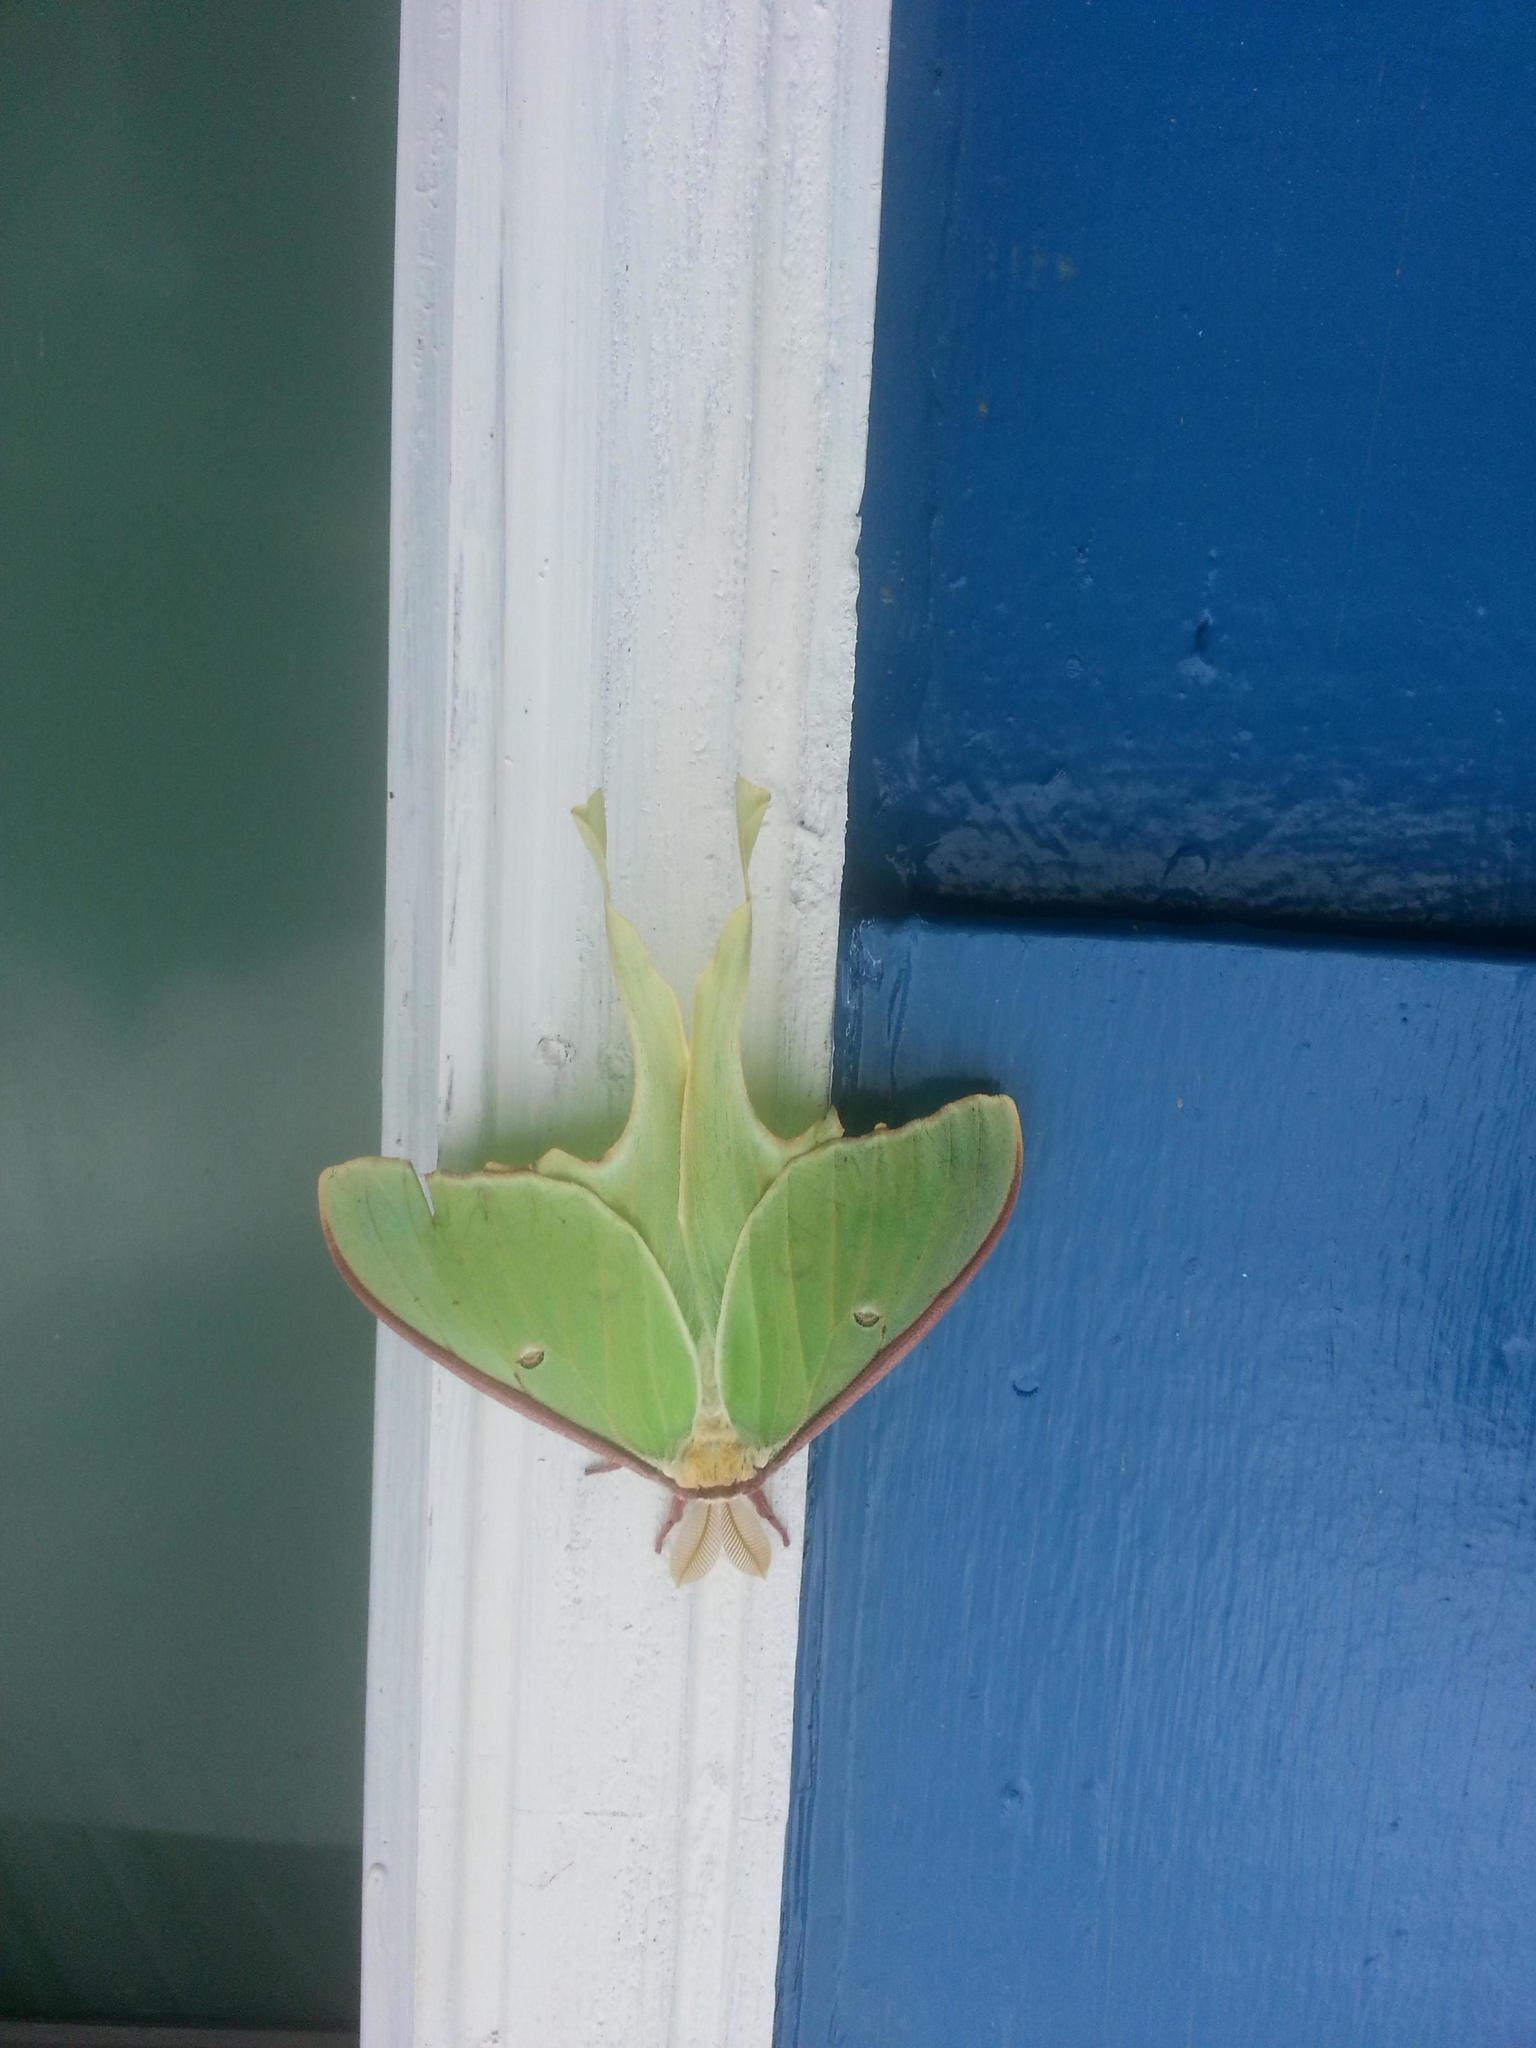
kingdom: Animalia
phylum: Arthropoda
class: Insecta
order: Lepidoptera
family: Saturniidae
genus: Actias
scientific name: Actias luna
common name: Luna moth
